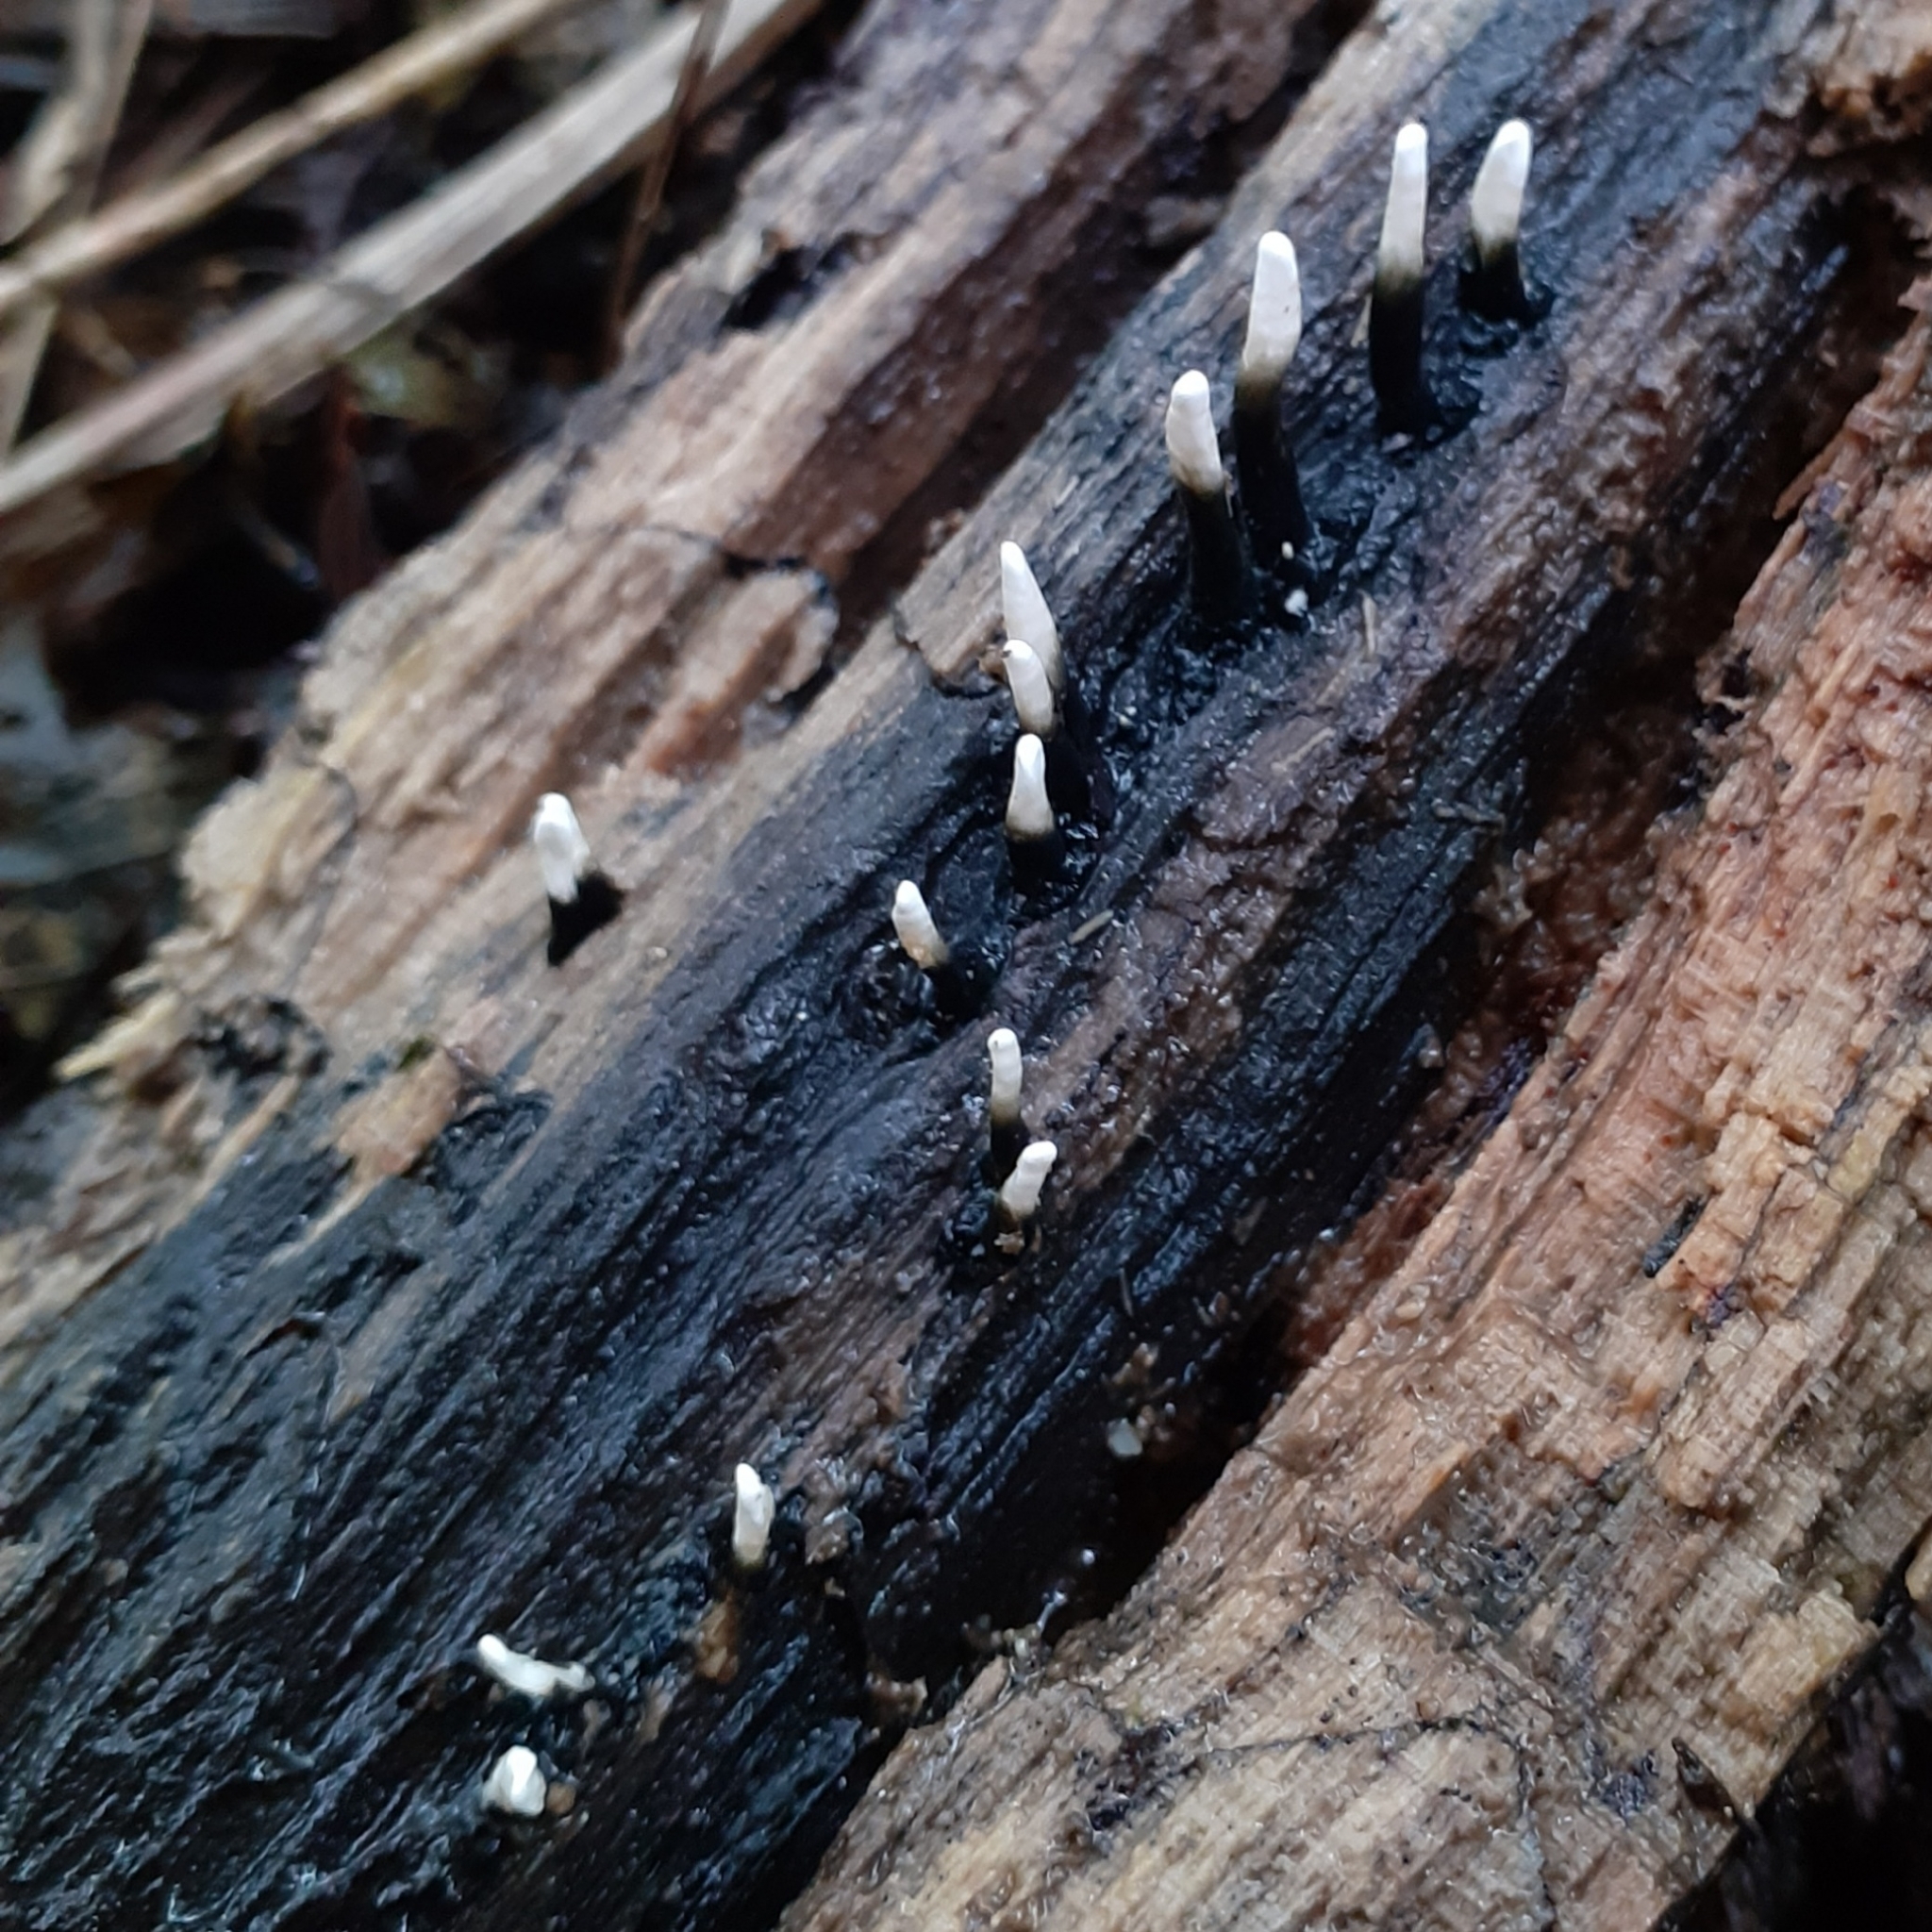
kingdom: Fungi
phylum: Ascomycota
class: Sordariomycetes
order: Xylariales
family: Xylariaceae
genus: Xylaria
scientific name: Xylaria hypoxylon
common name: Candle-snuff fungus
